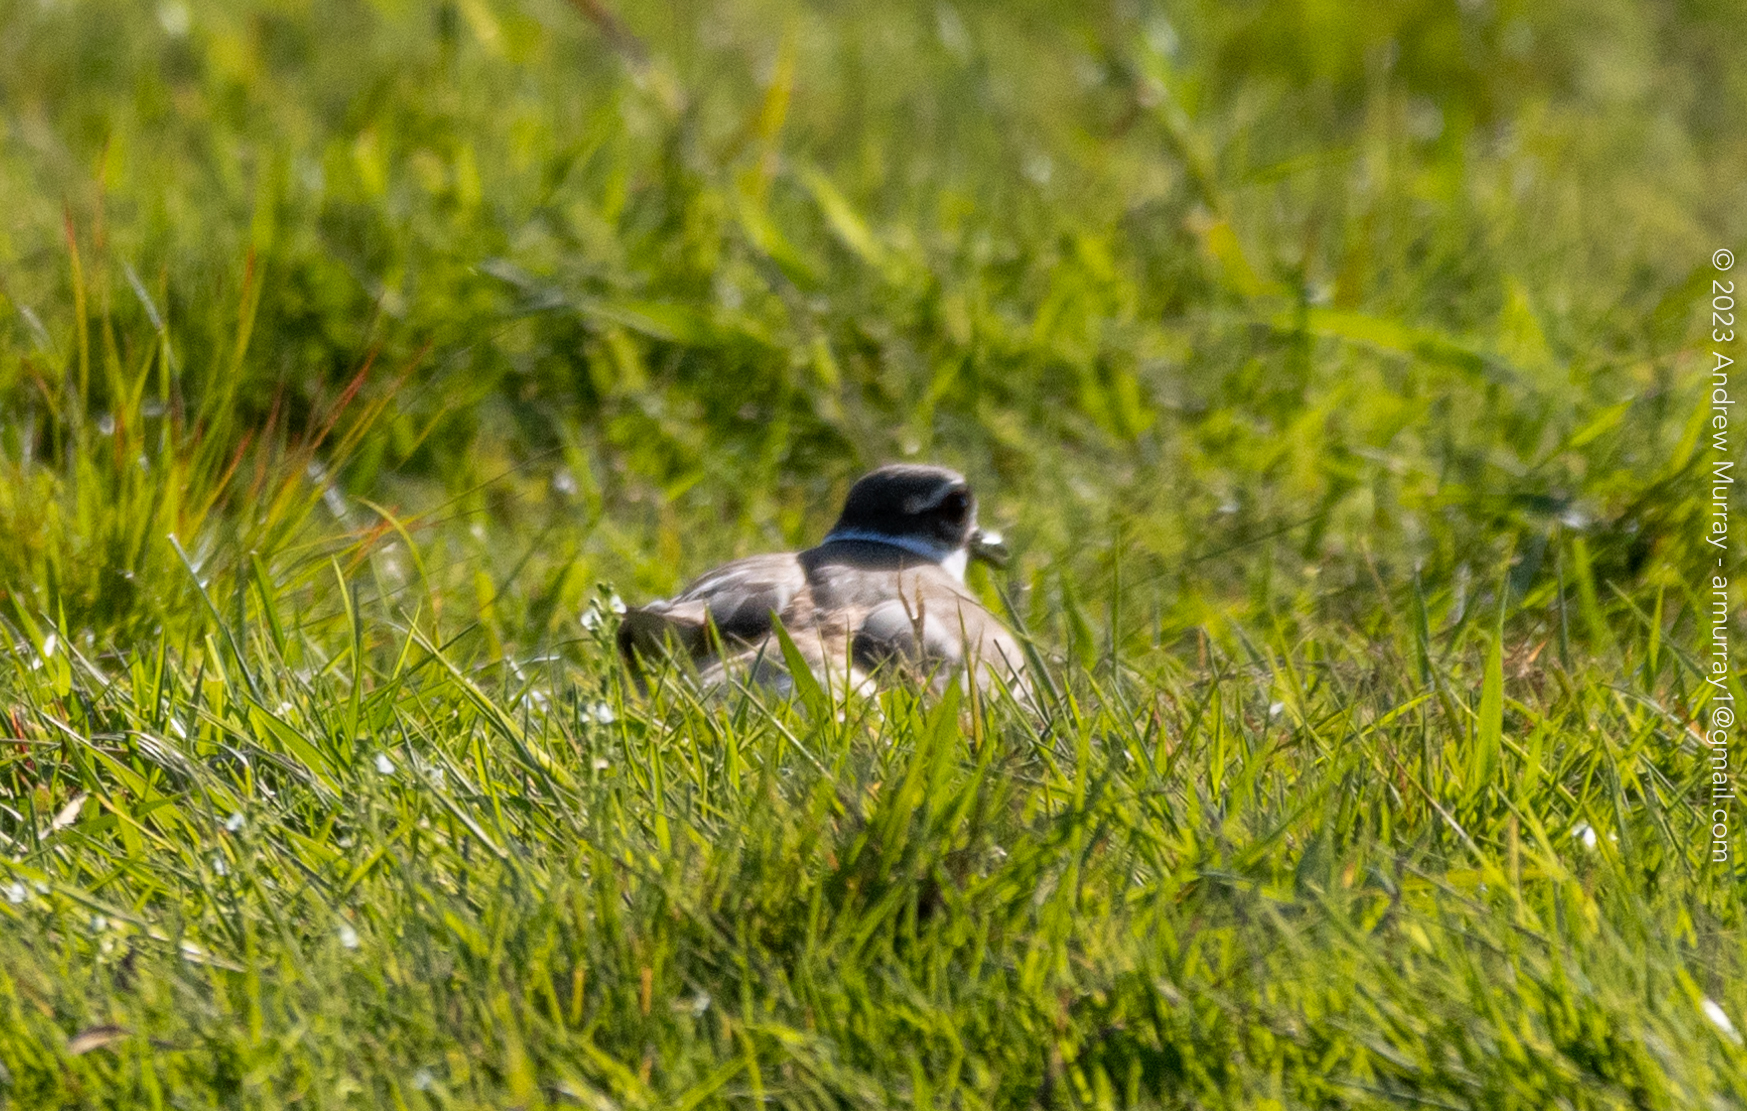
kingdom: Animalia
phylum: Chordata
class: Aves
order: Charadriiformes
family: Charadriidae
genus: Charadrius
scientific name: Charadrius vociferus
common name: Killdeer
